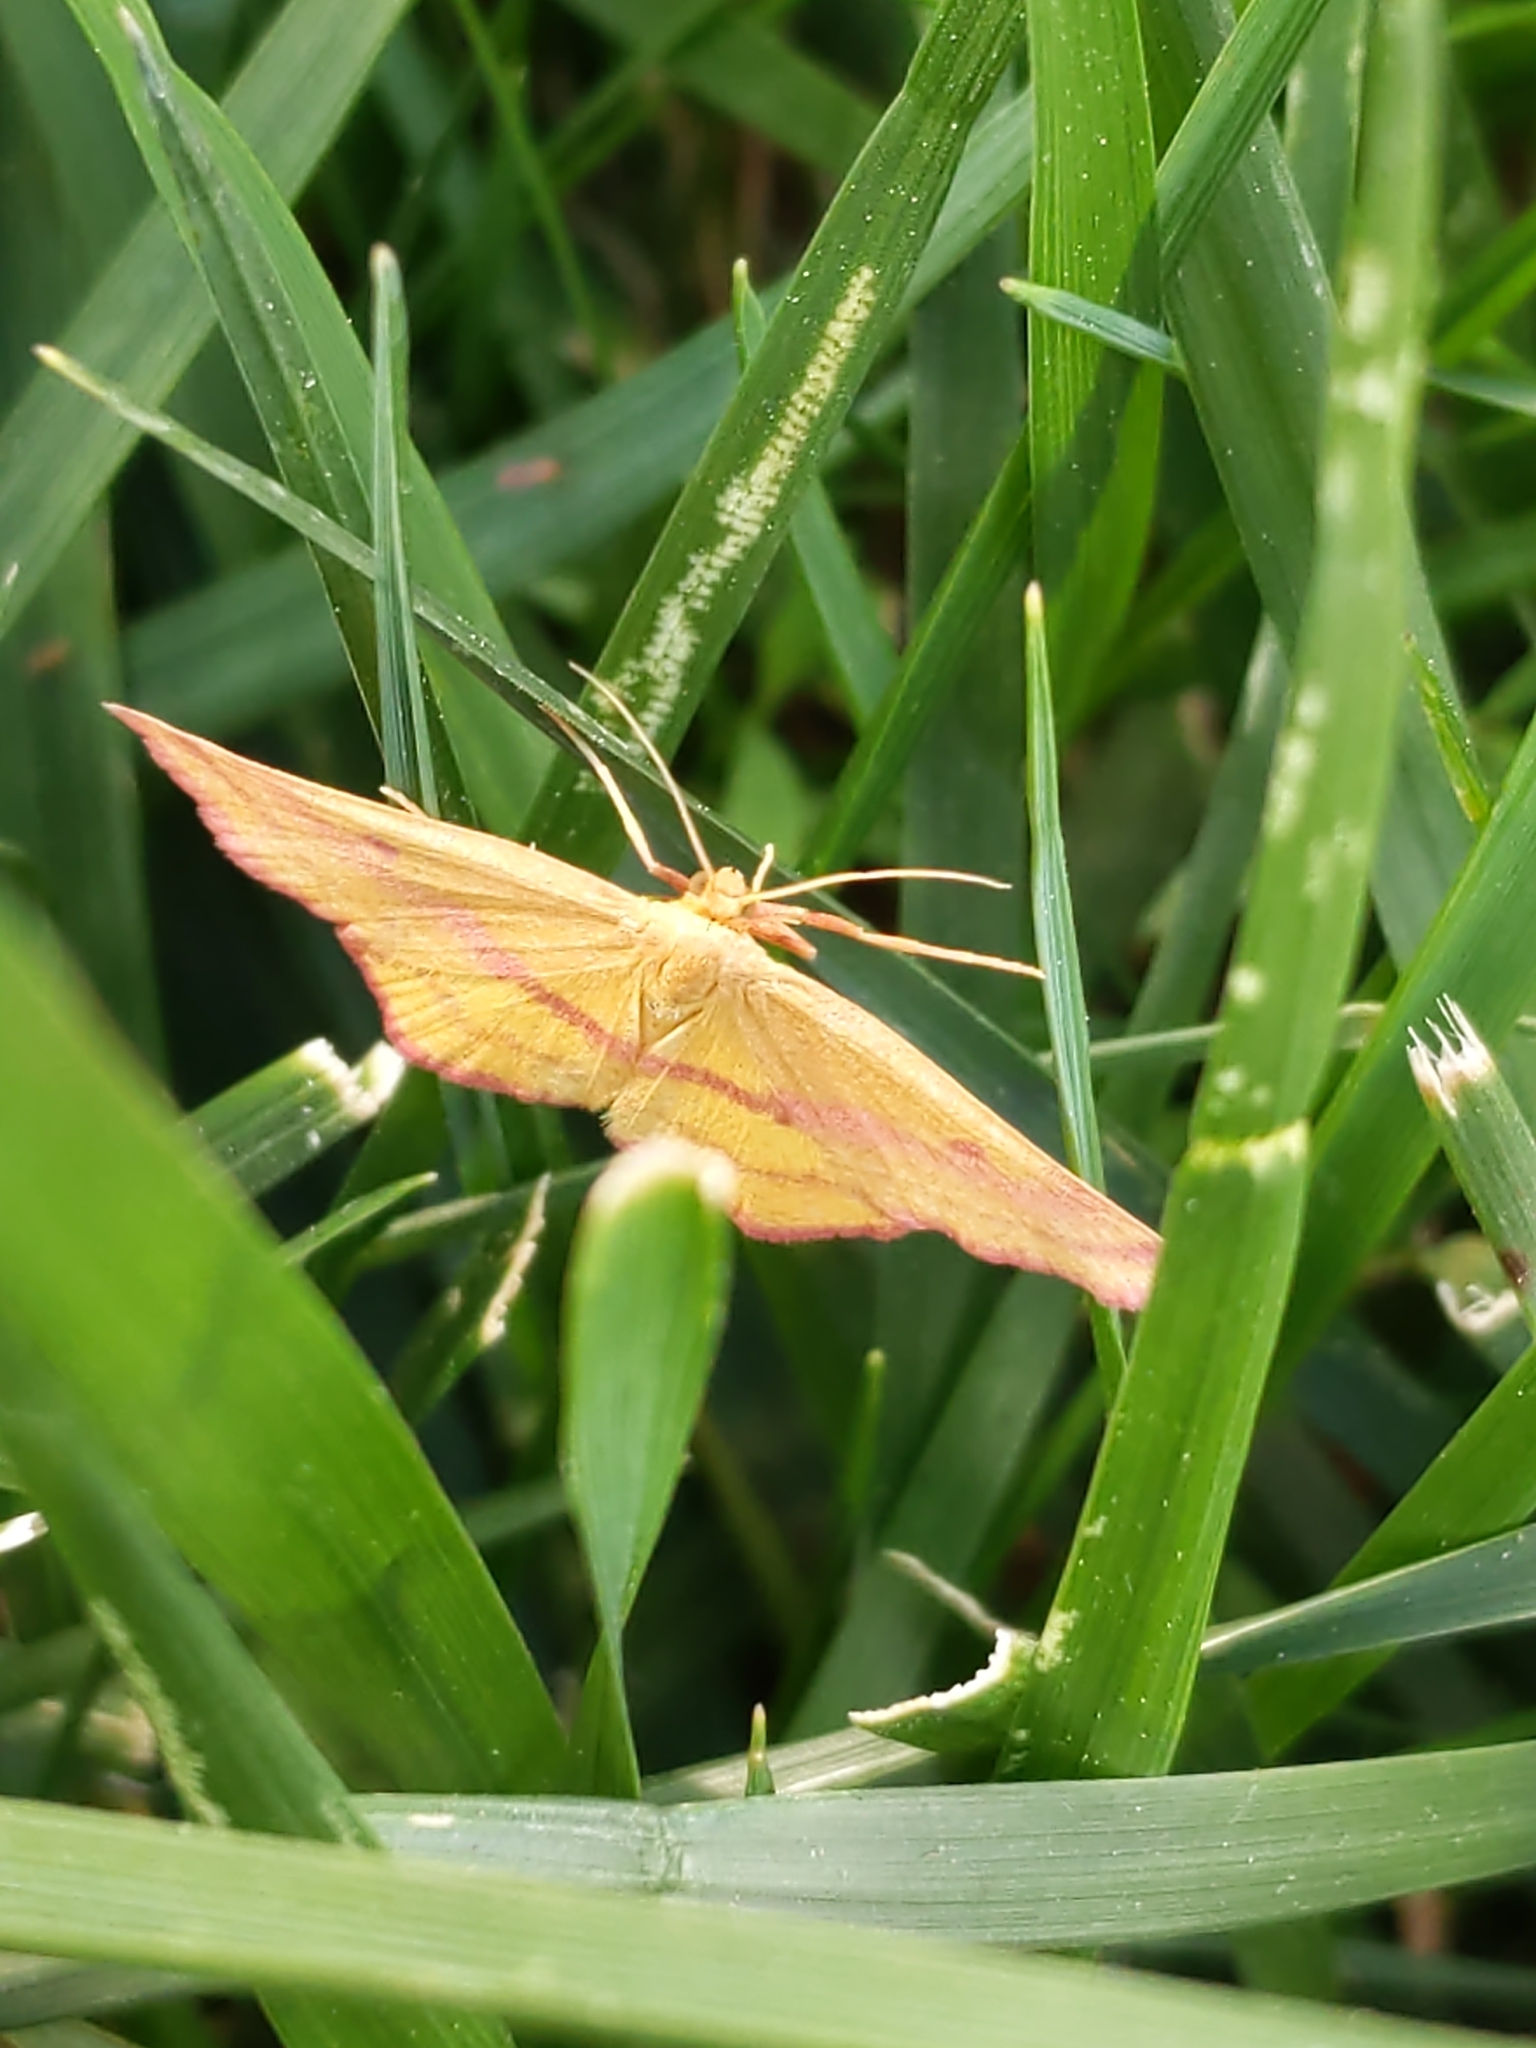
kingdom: Animalia
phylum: Arthropoda
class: Insecta
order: Lepidoptera
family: Geometridae
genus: Haematopis
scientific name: Haematopis grataria
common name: Chickweed geometer
